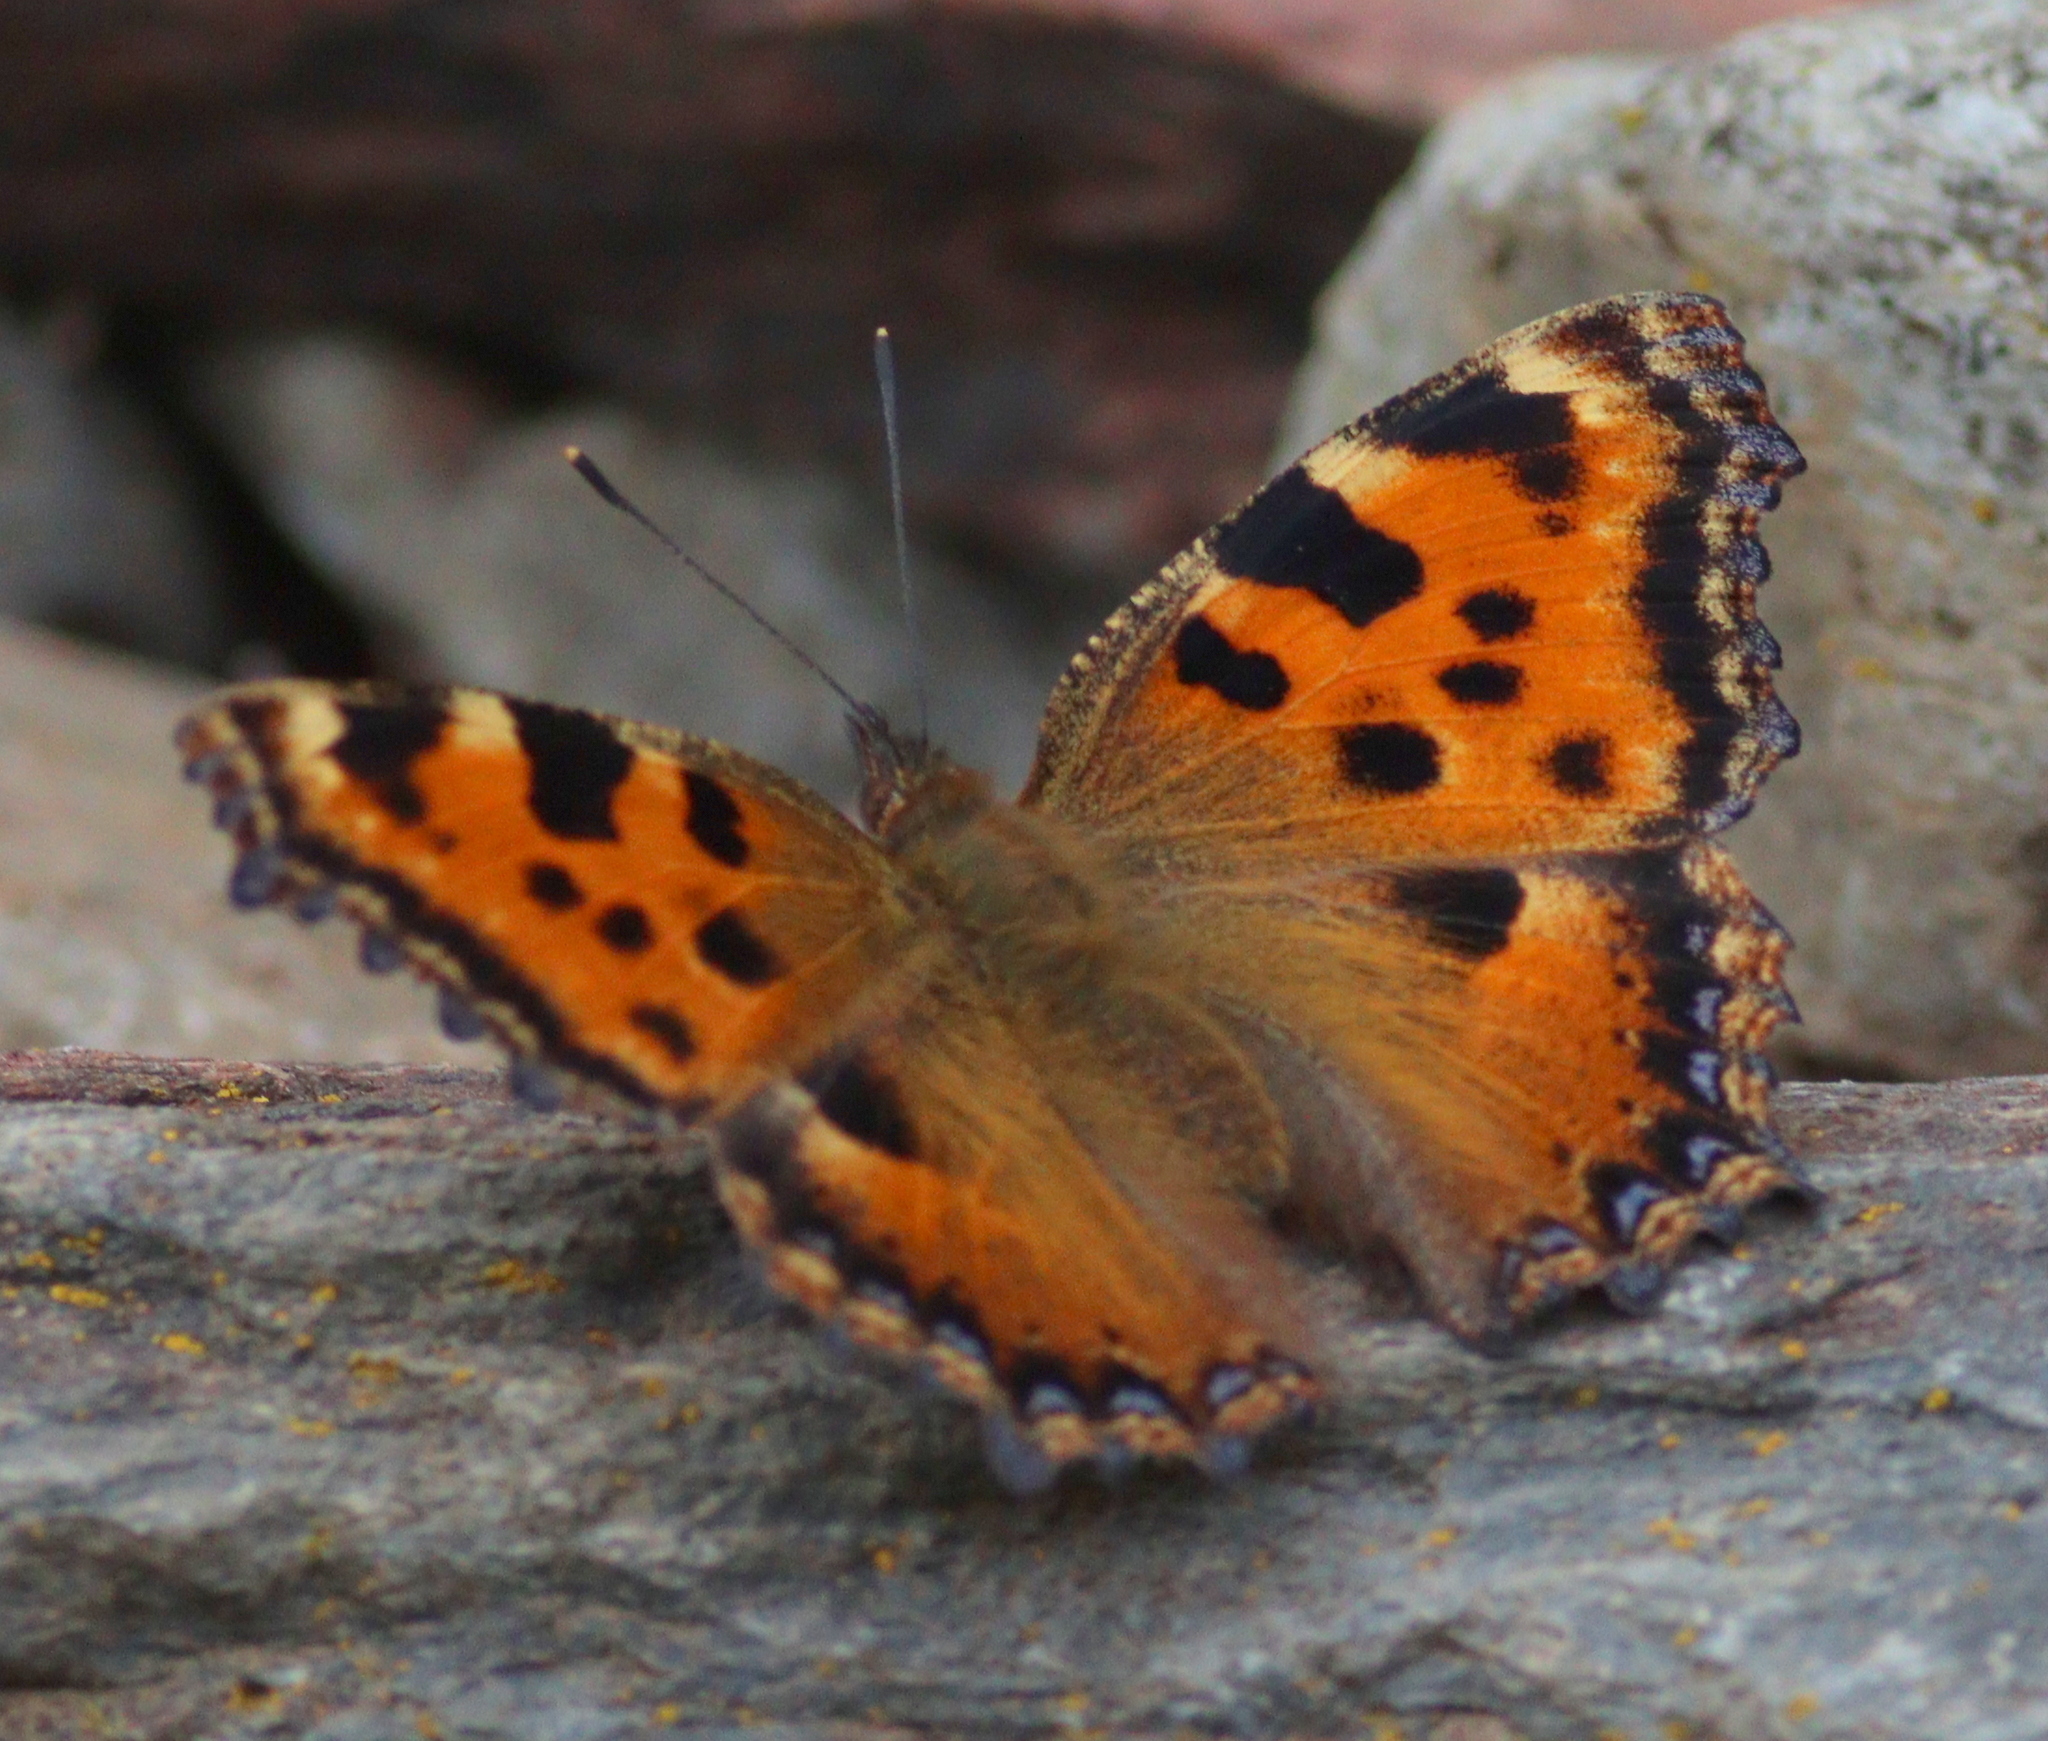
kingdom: Animalia
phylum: Arthropoda
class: Insecta
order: Lepidoptera
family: Nymphalidae
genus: Nymphalis
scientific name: Nymphalis polychloros
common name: Large tortoiseshell
